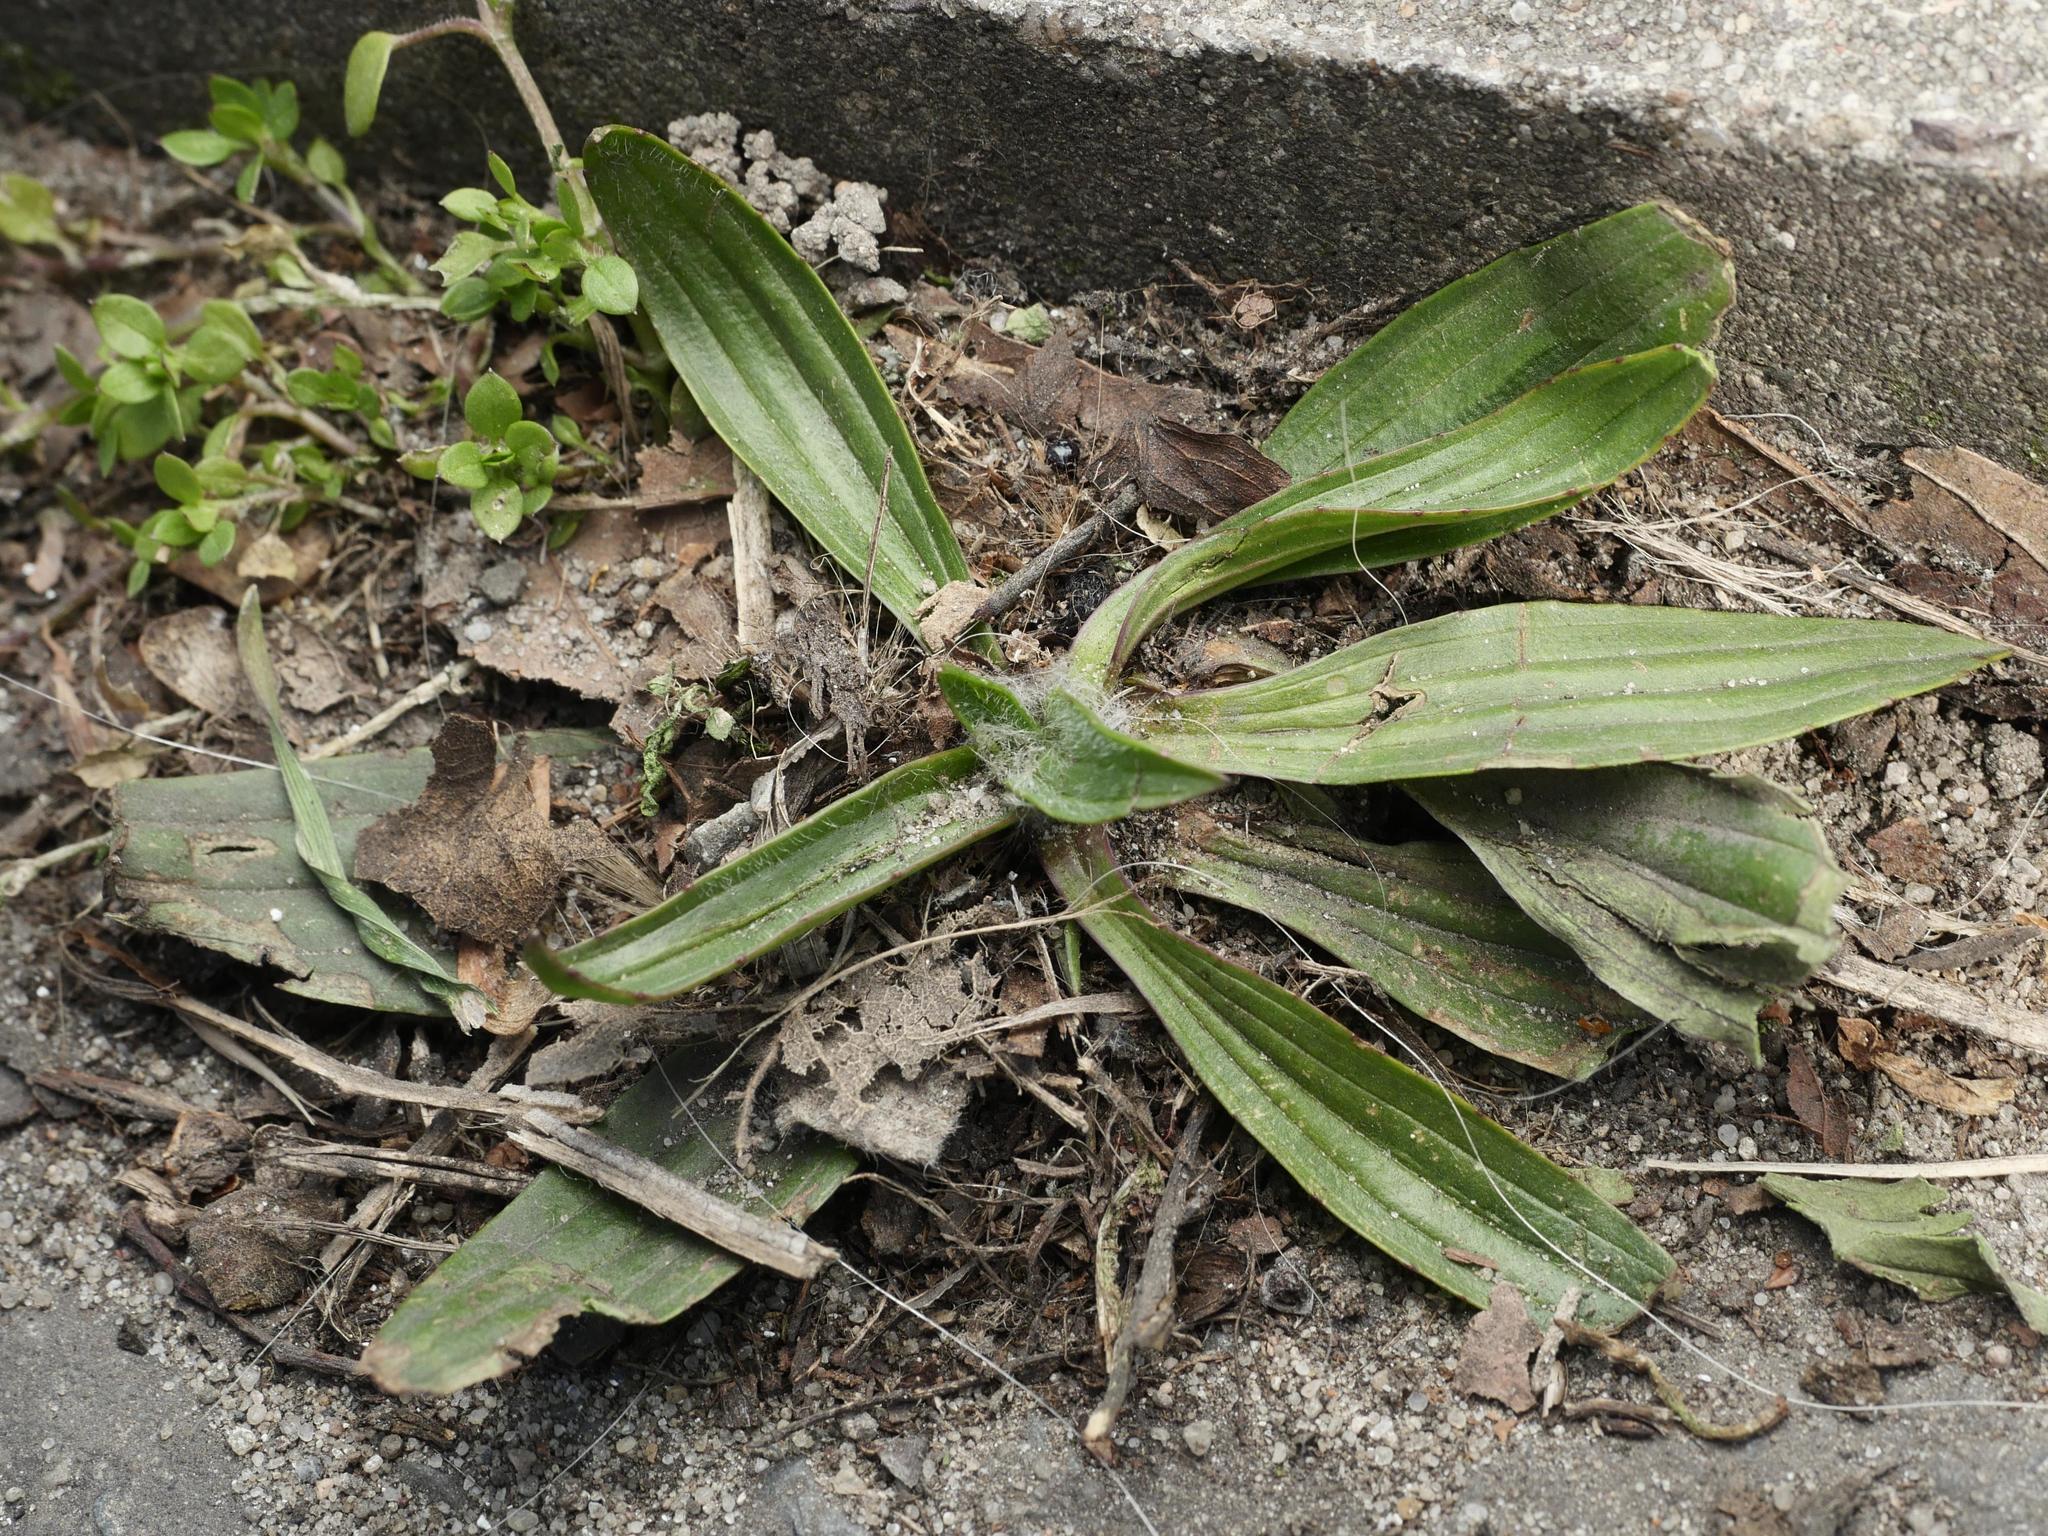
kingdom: Plantae
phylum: Tracheophyta
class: Magnoliopsida
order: Lamiales
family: Plantaginaceae
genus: Plantago
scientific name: Plantago lanceolata
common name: Ribwort plantain
